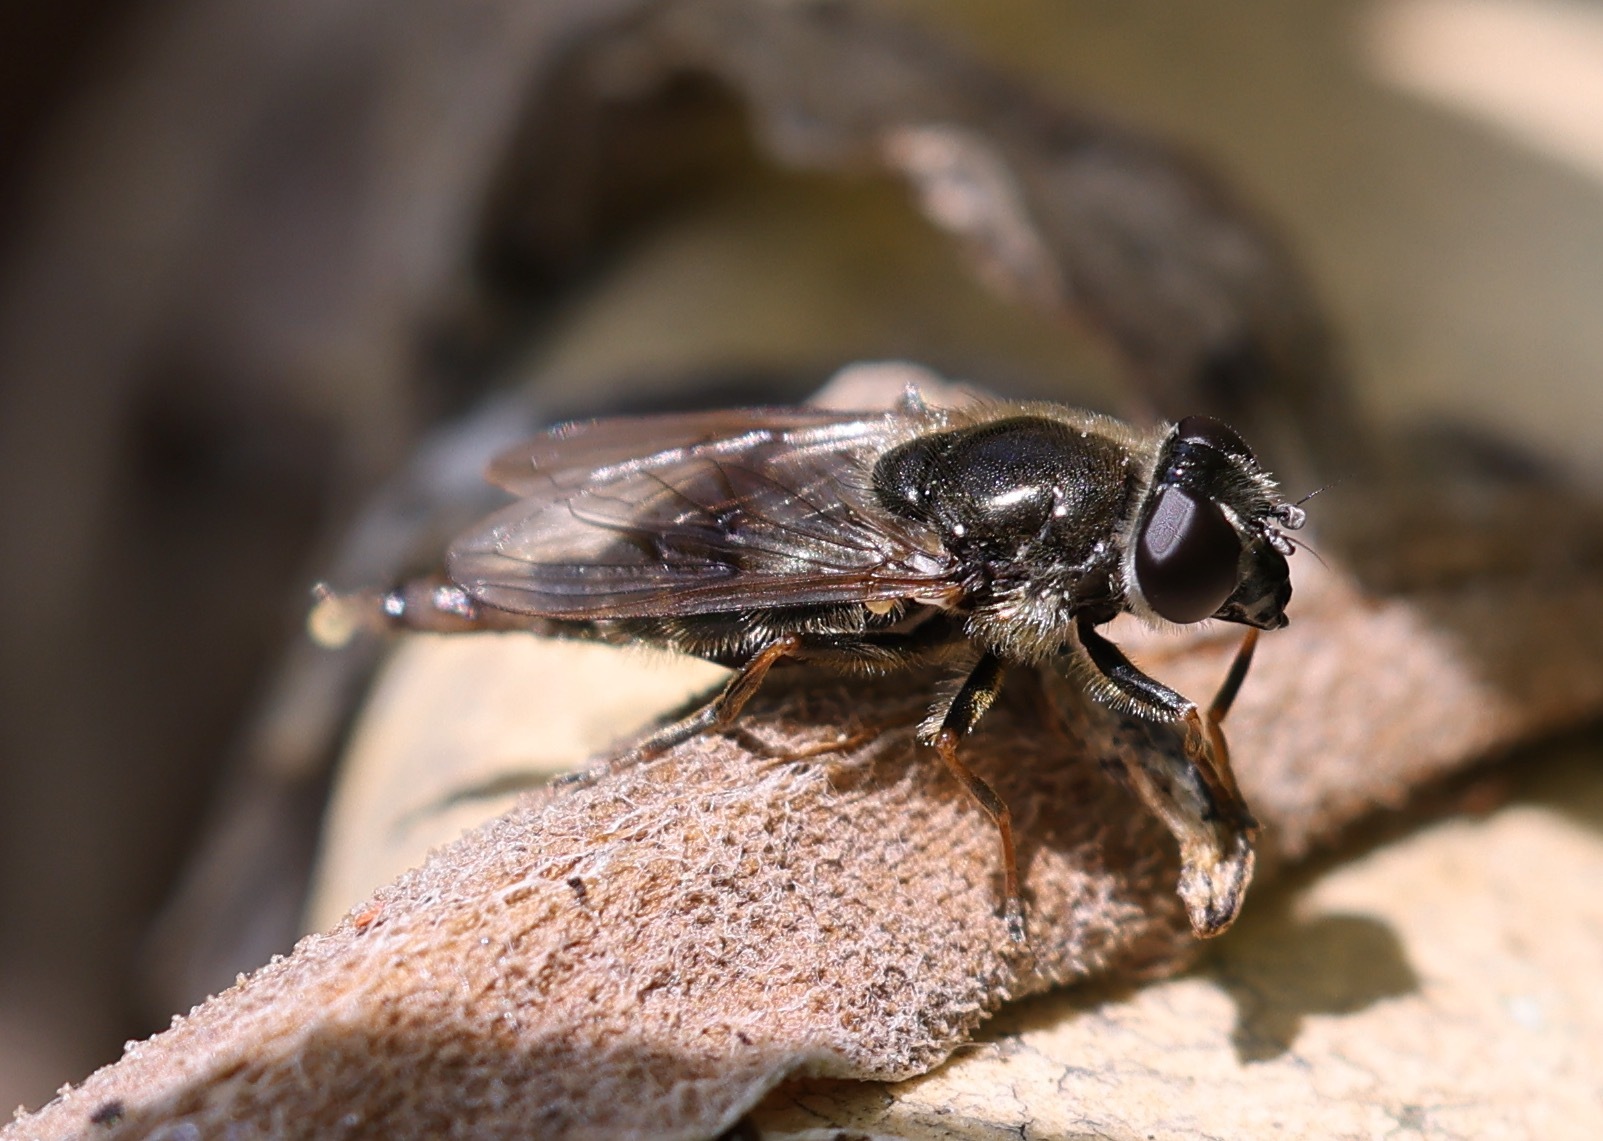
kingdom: Animalia
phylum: Arthropoda
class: Insecta
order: Diptera
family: Syrphidae
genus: Cheilosia
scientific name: Cheilosia caerulescens
